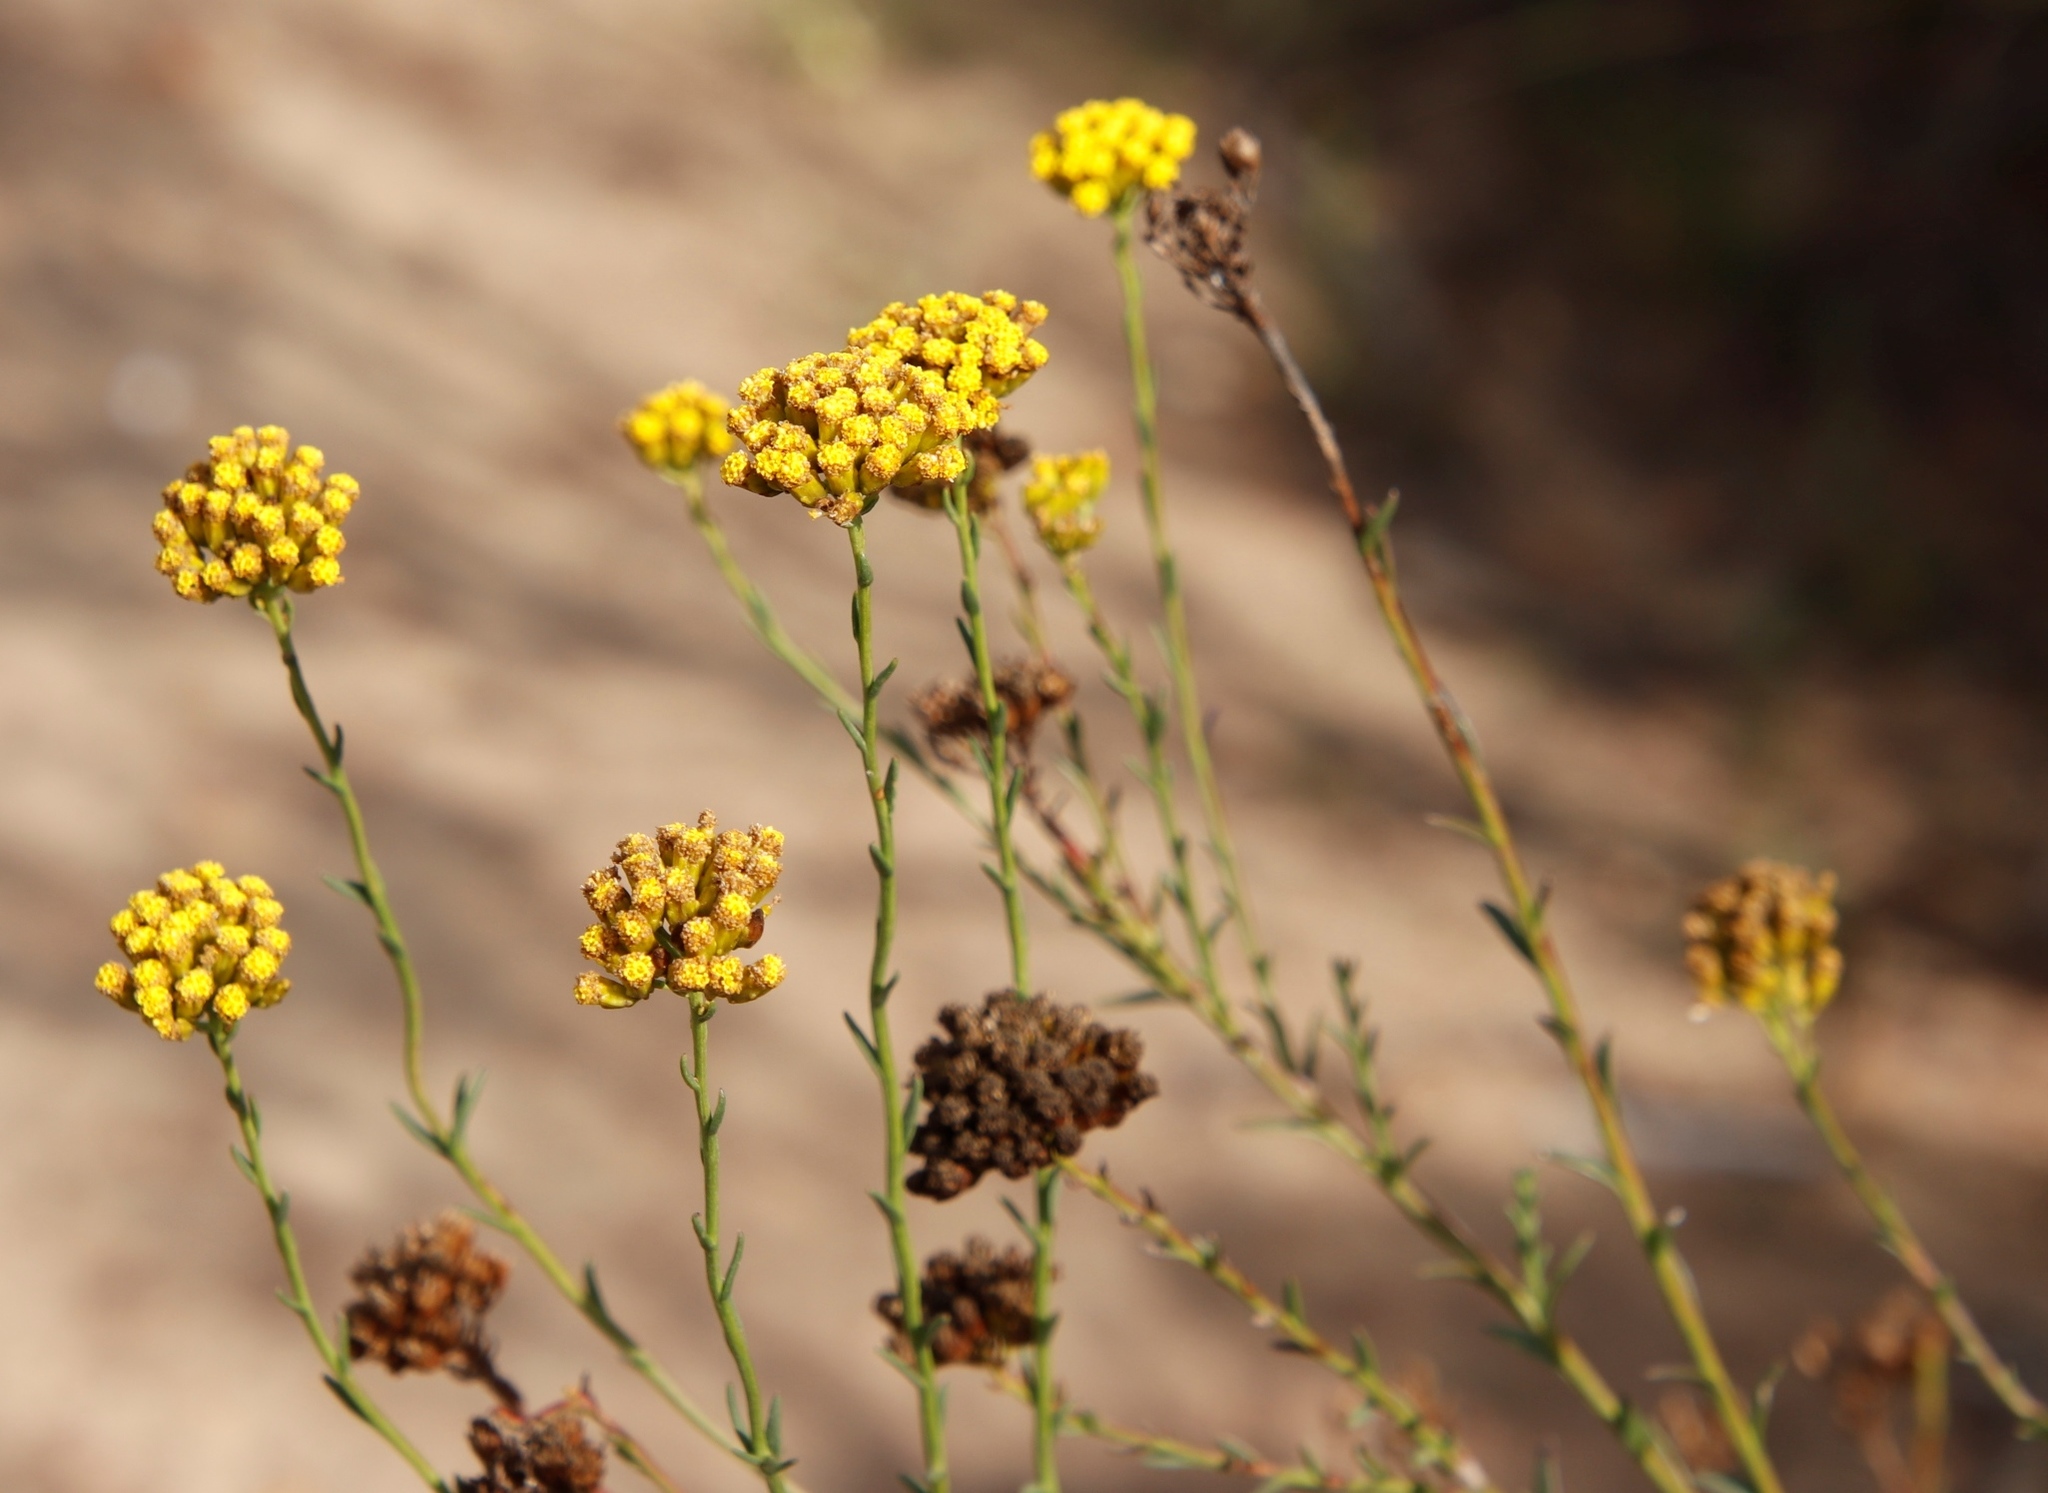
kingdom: Plantae
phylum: Tracheophyta
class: Magnoliopsida
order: Asterales
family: Asteraceae
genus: Athanasia
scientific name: Athanasia juncea
